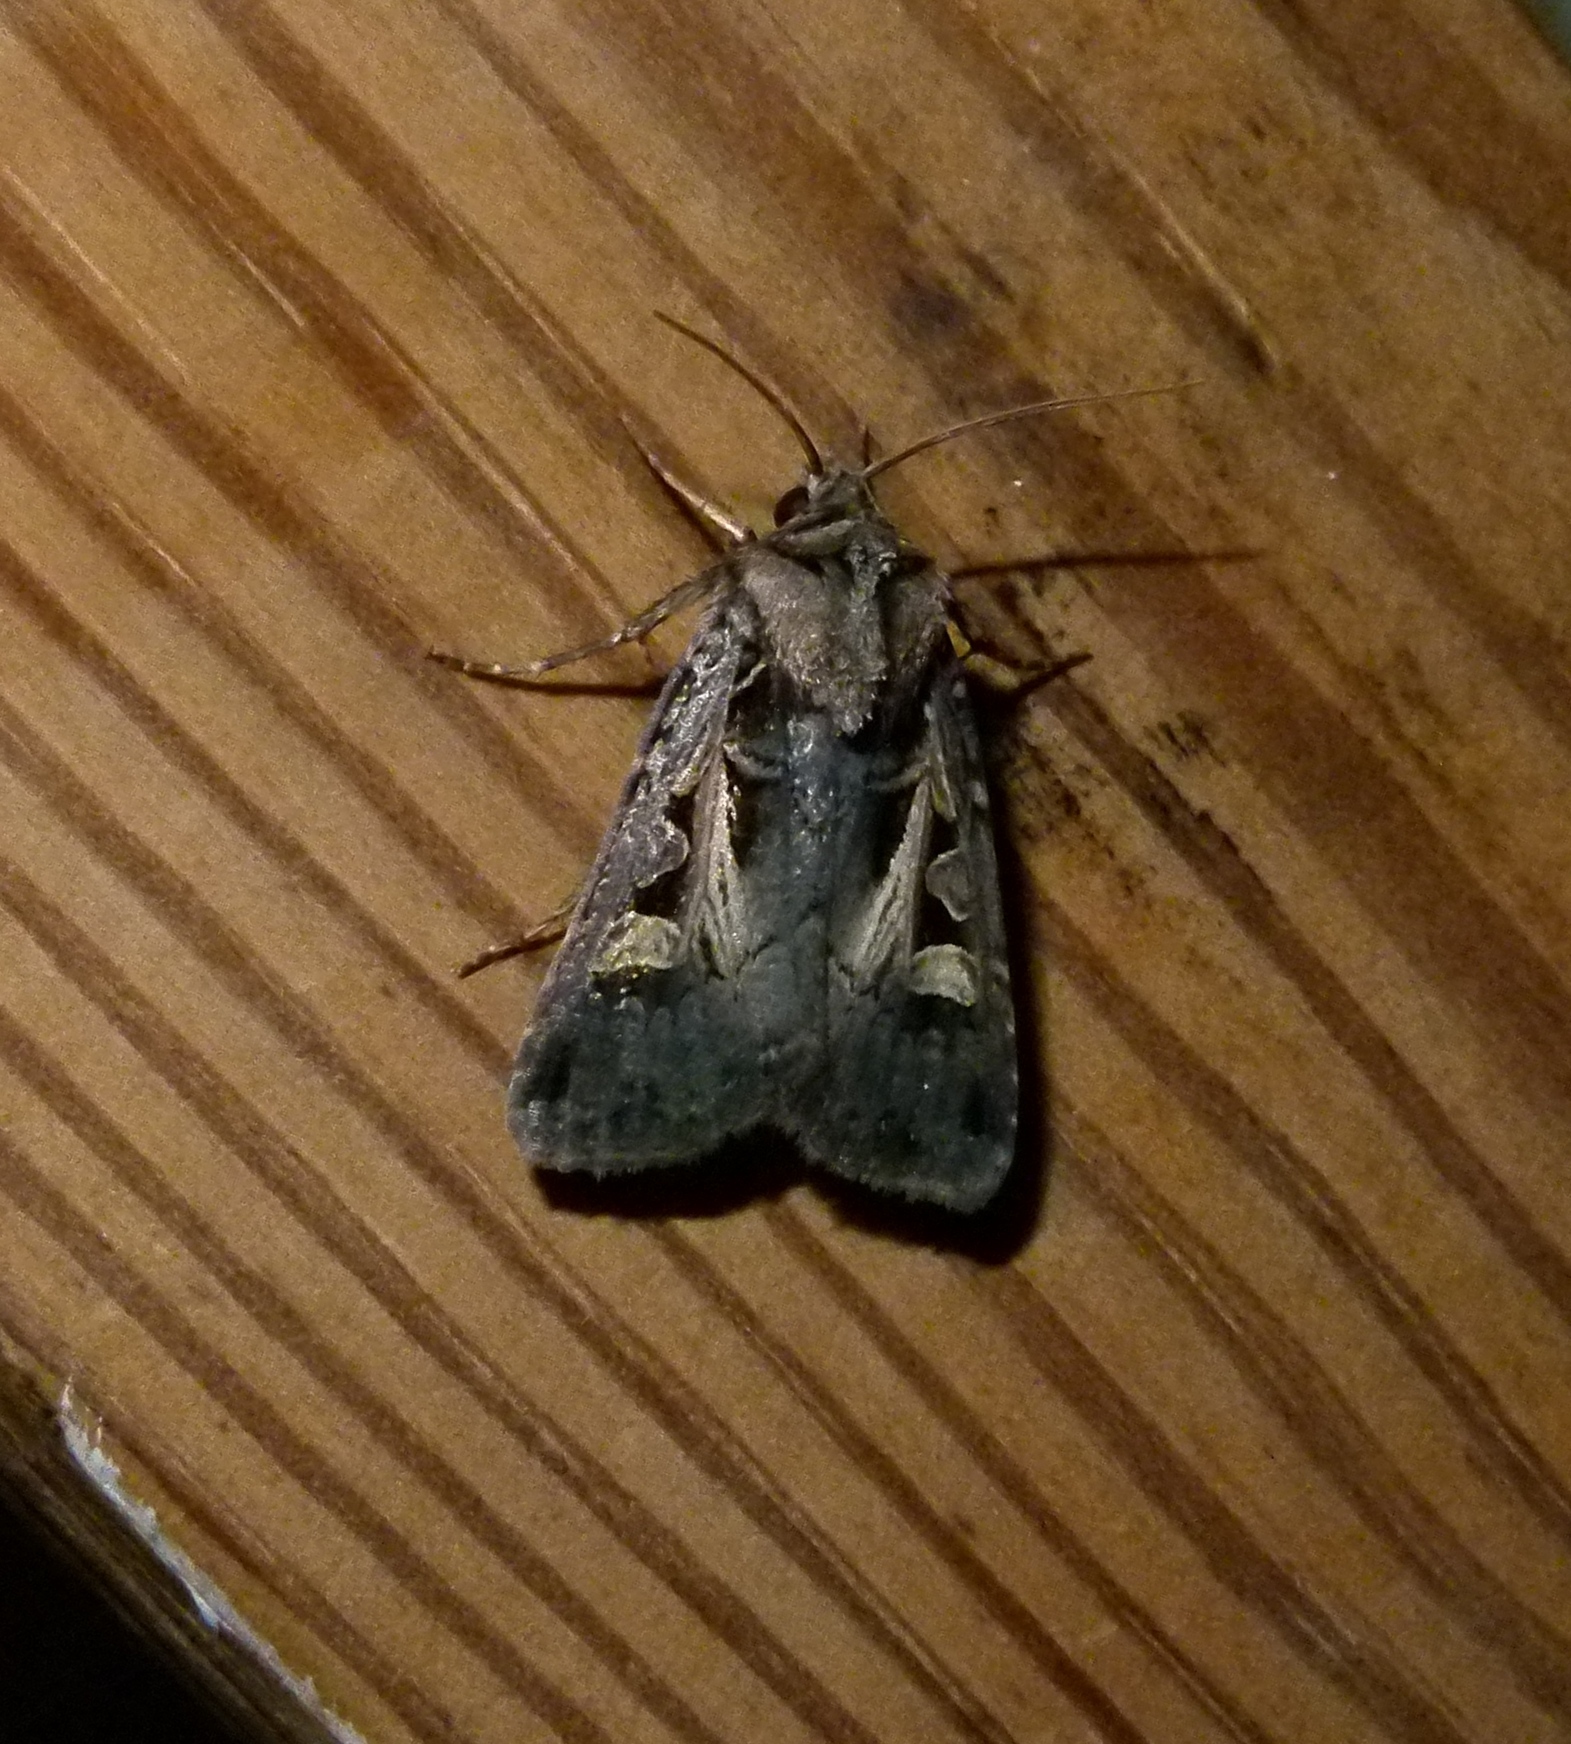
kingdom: Animalia
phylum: Arthropoda
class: Insecta
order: Lepidoptera
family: Noctuidae
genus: Feltia
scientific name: Feltia herilis
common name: Master's dart
